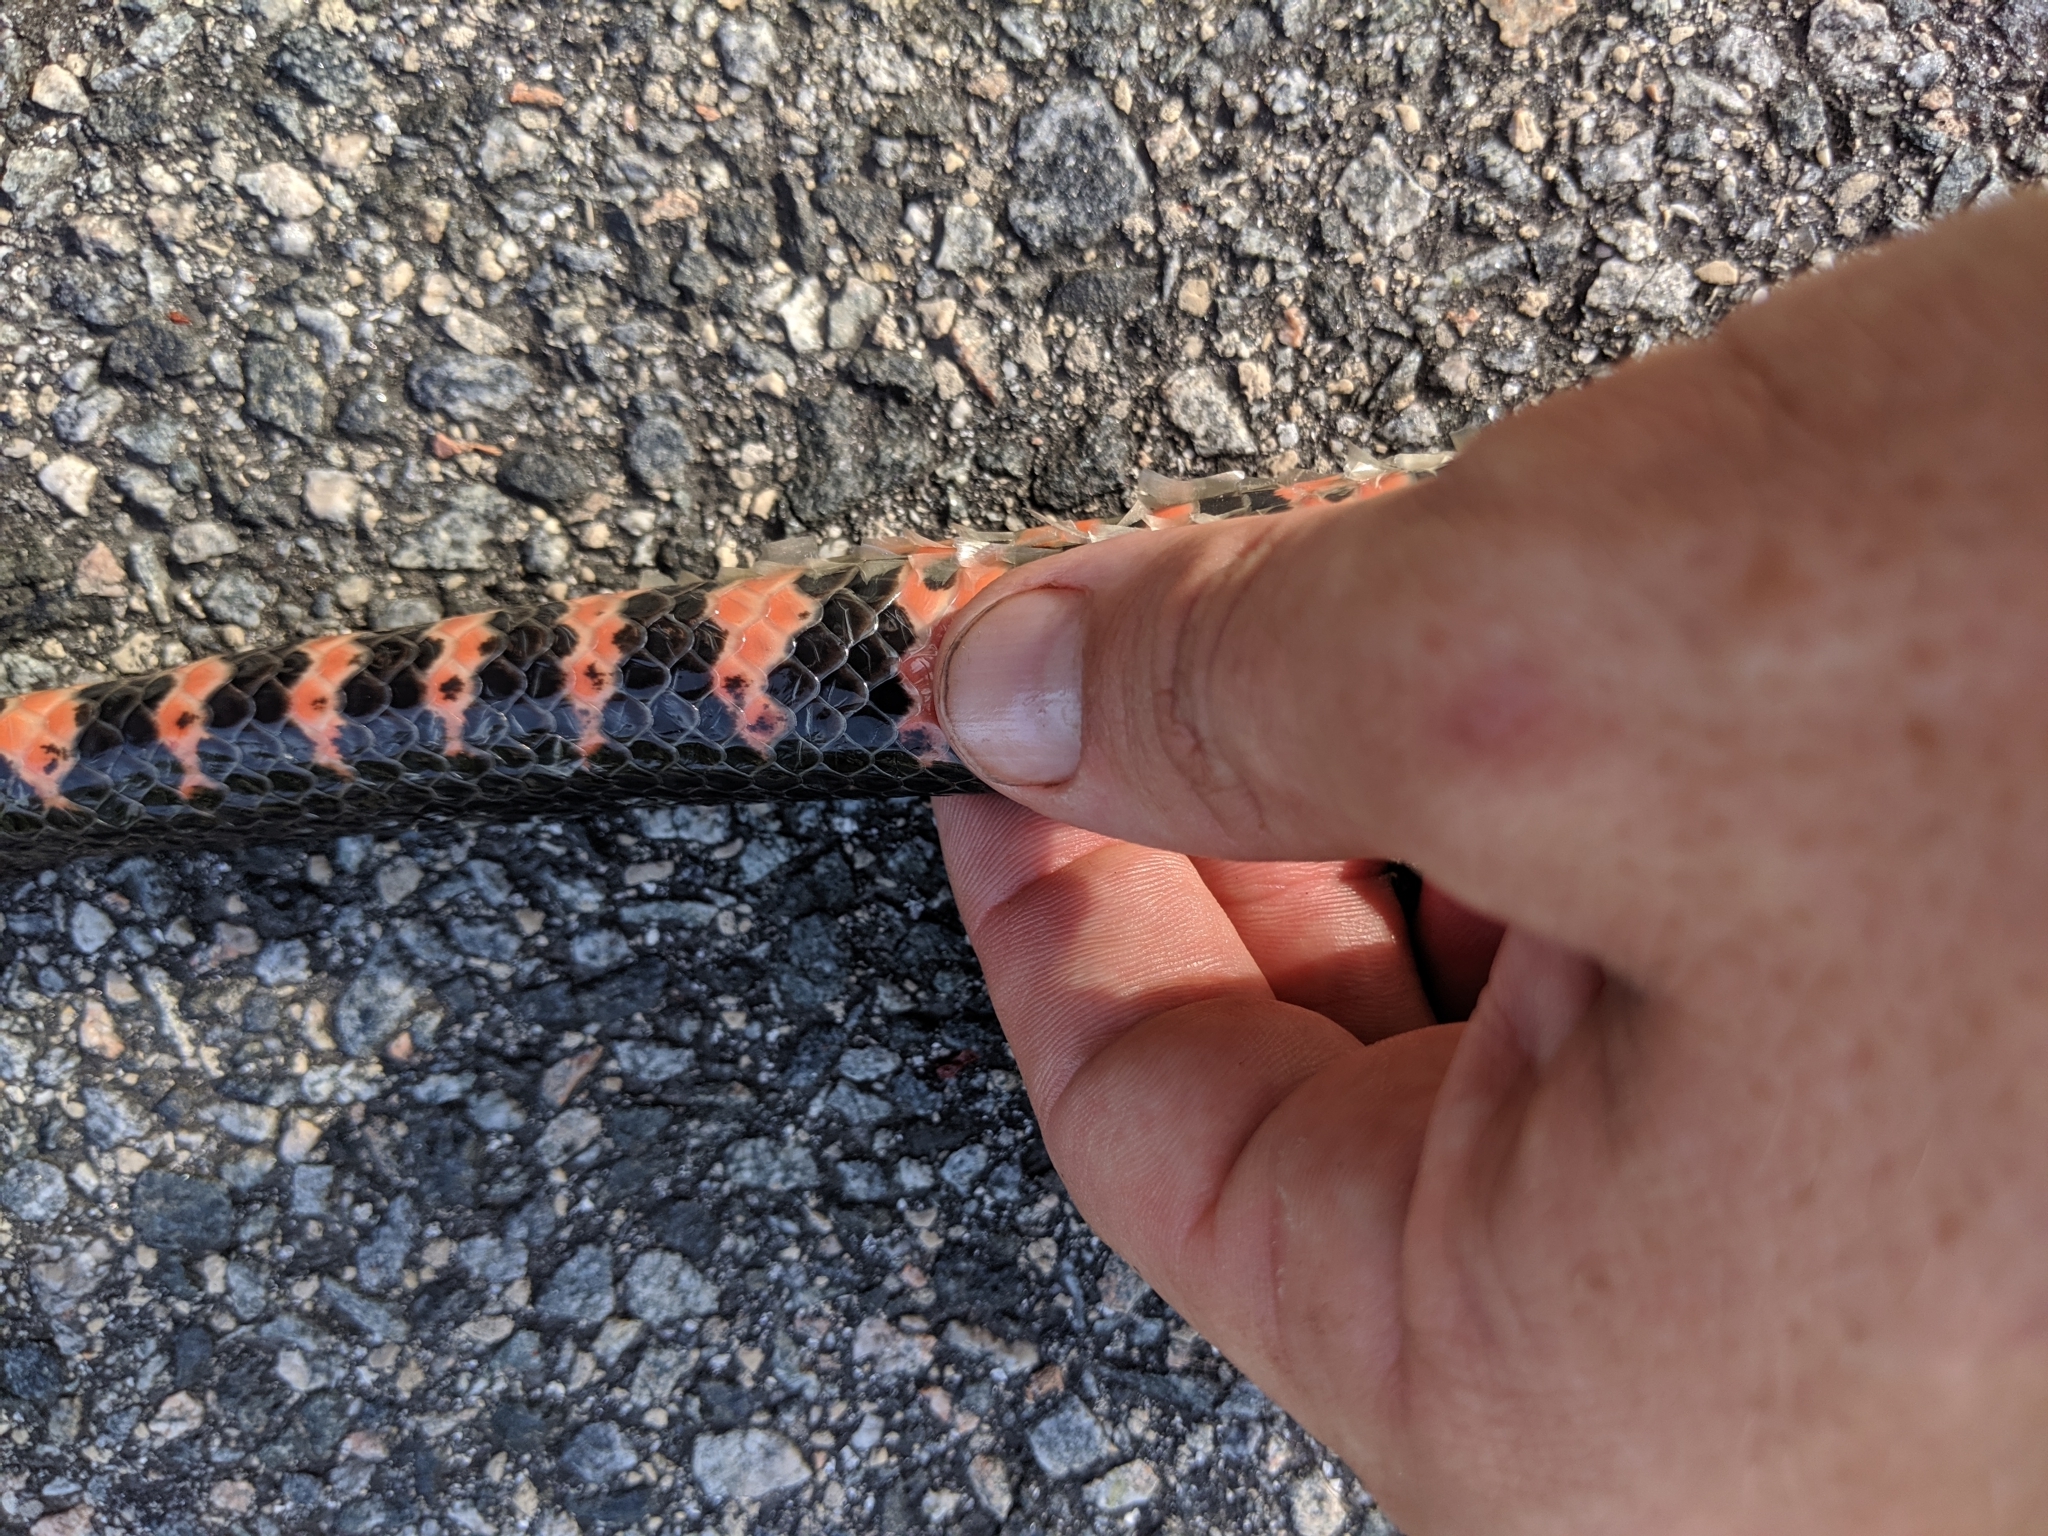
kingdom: Animalia
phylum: Chordata
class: Squamata
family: Colubridae
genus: Farancia
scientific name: Farancia abacura
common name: Mud snake
